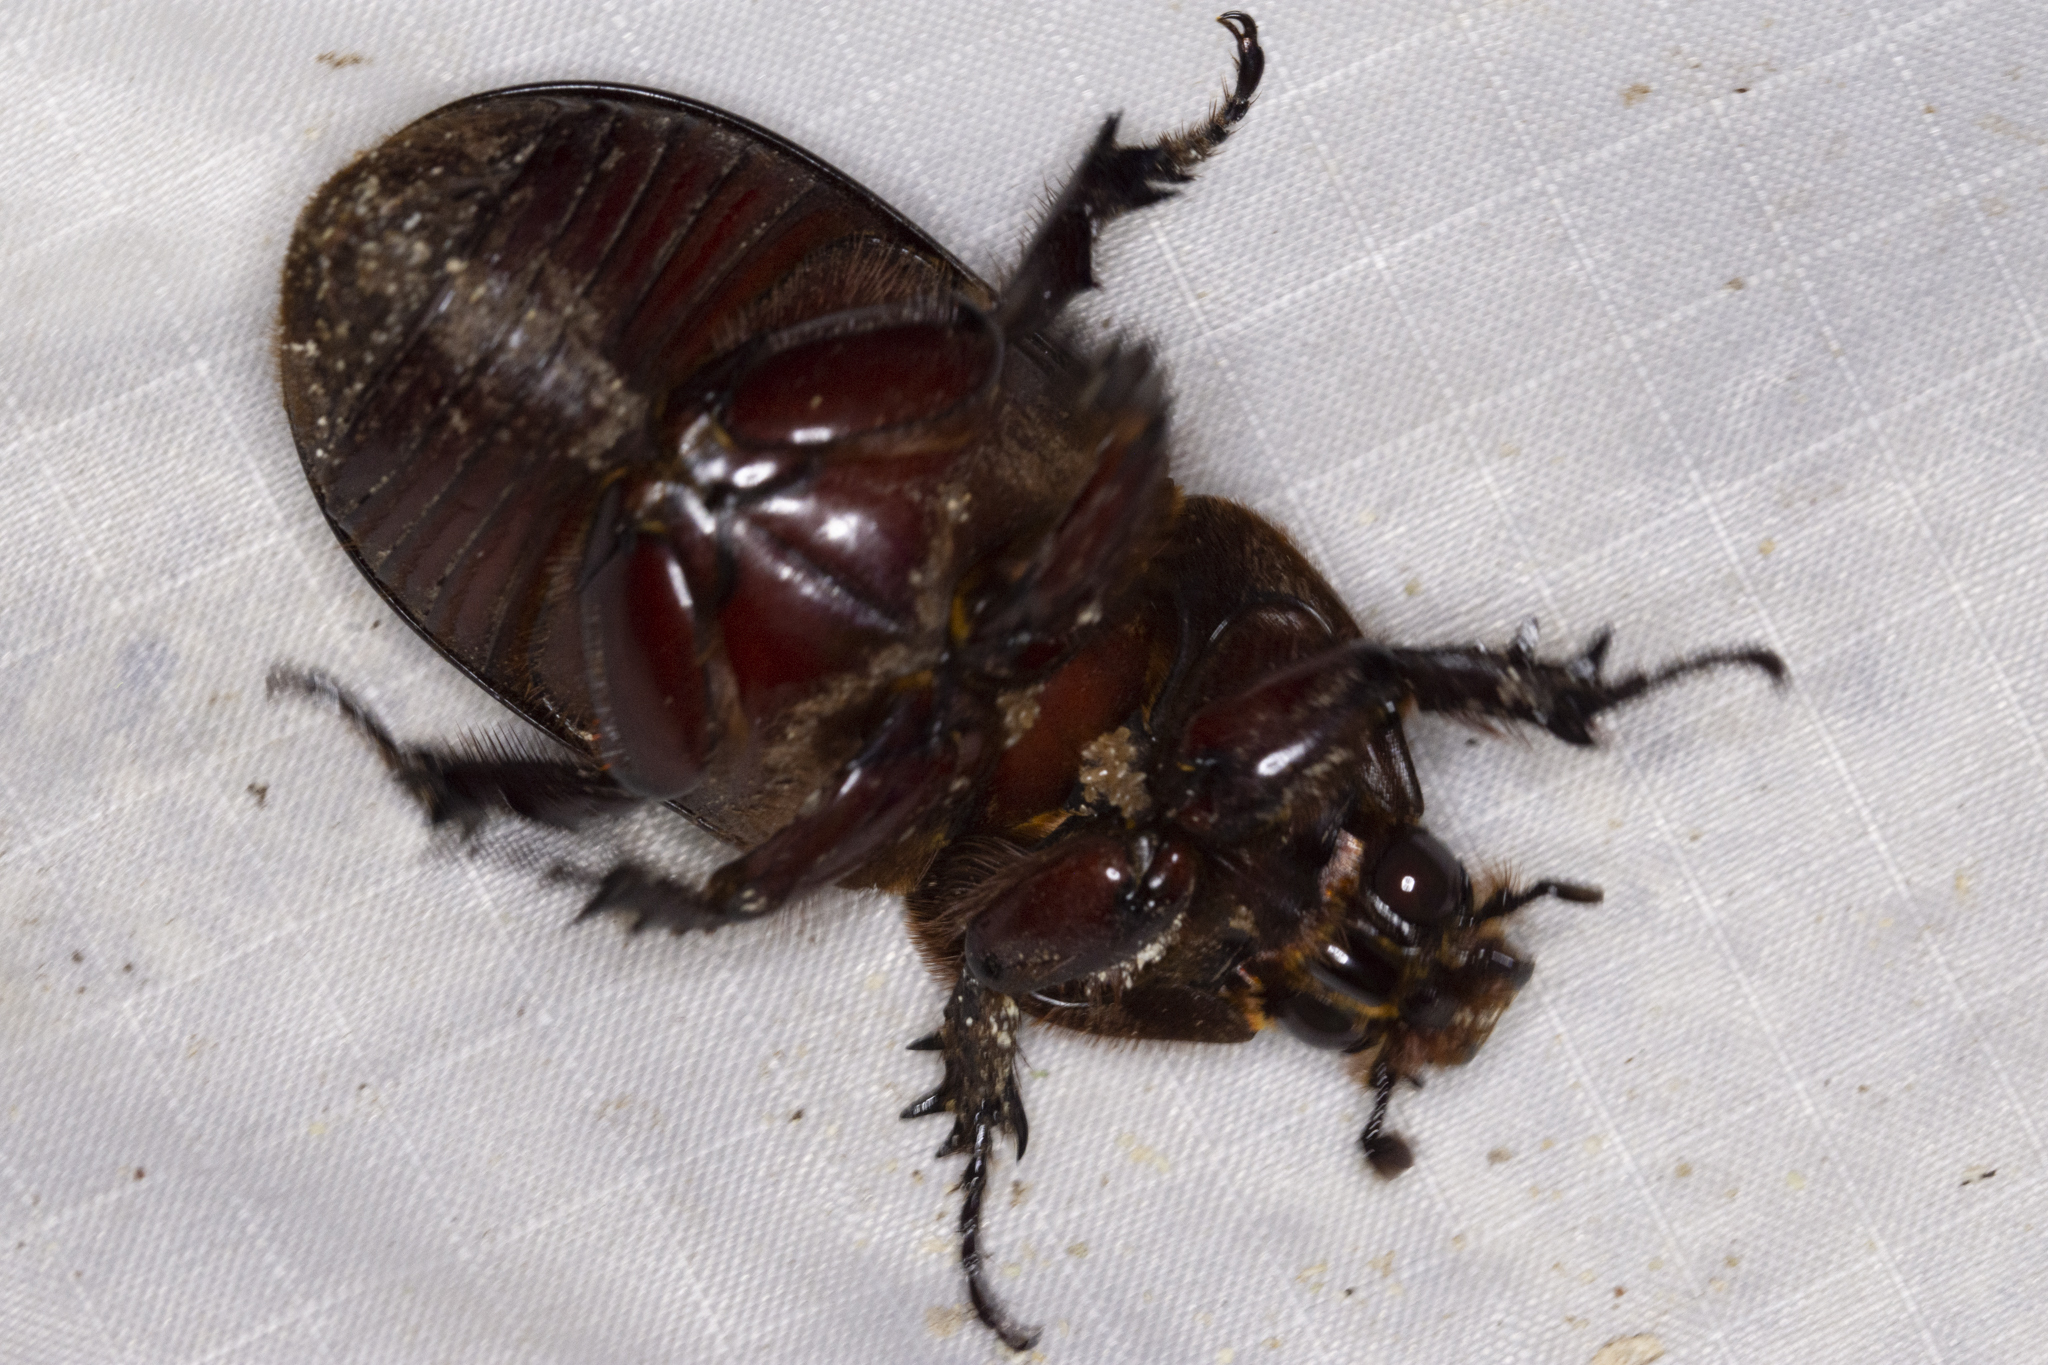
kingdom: Animalia
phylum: Arthropoda
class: Insecta
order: Coleoptera
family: Scarabaeidae
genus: Oryctes
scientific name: Oryctes rhinoceros
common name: Coconut rhinoceros beetle
